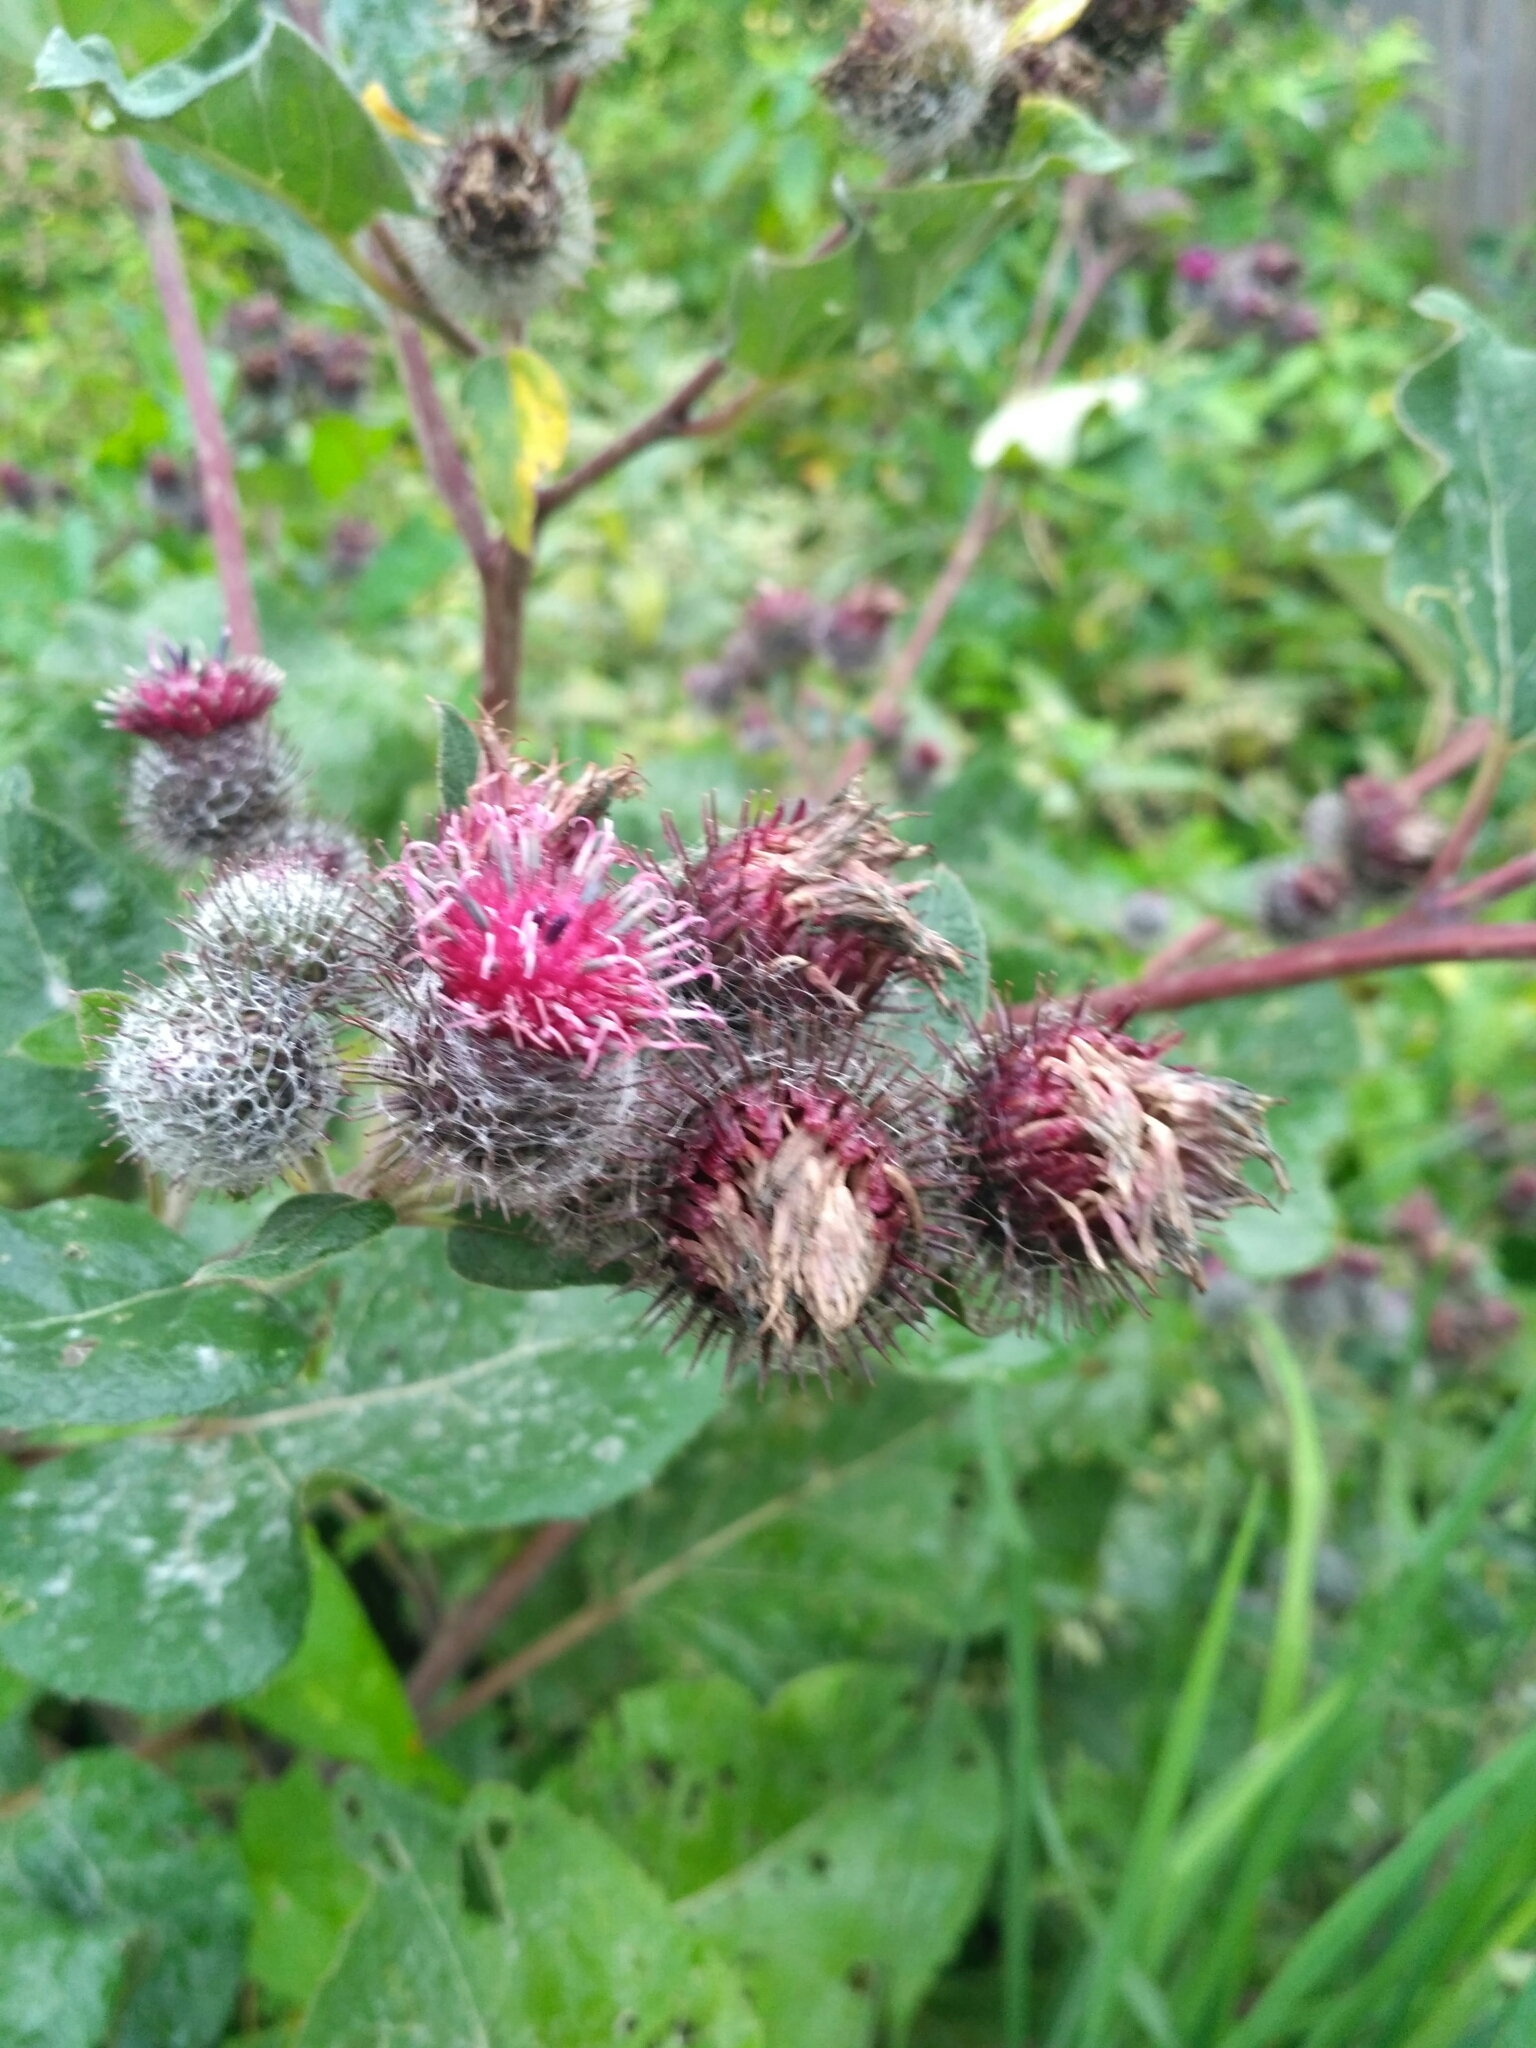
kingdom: Plantae
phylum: Tracheophyta
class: Magnoliopsida
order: Asterales
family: Asteraceae
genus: Arctium
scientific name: Arctium tomentosum
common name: Woolly burdock
